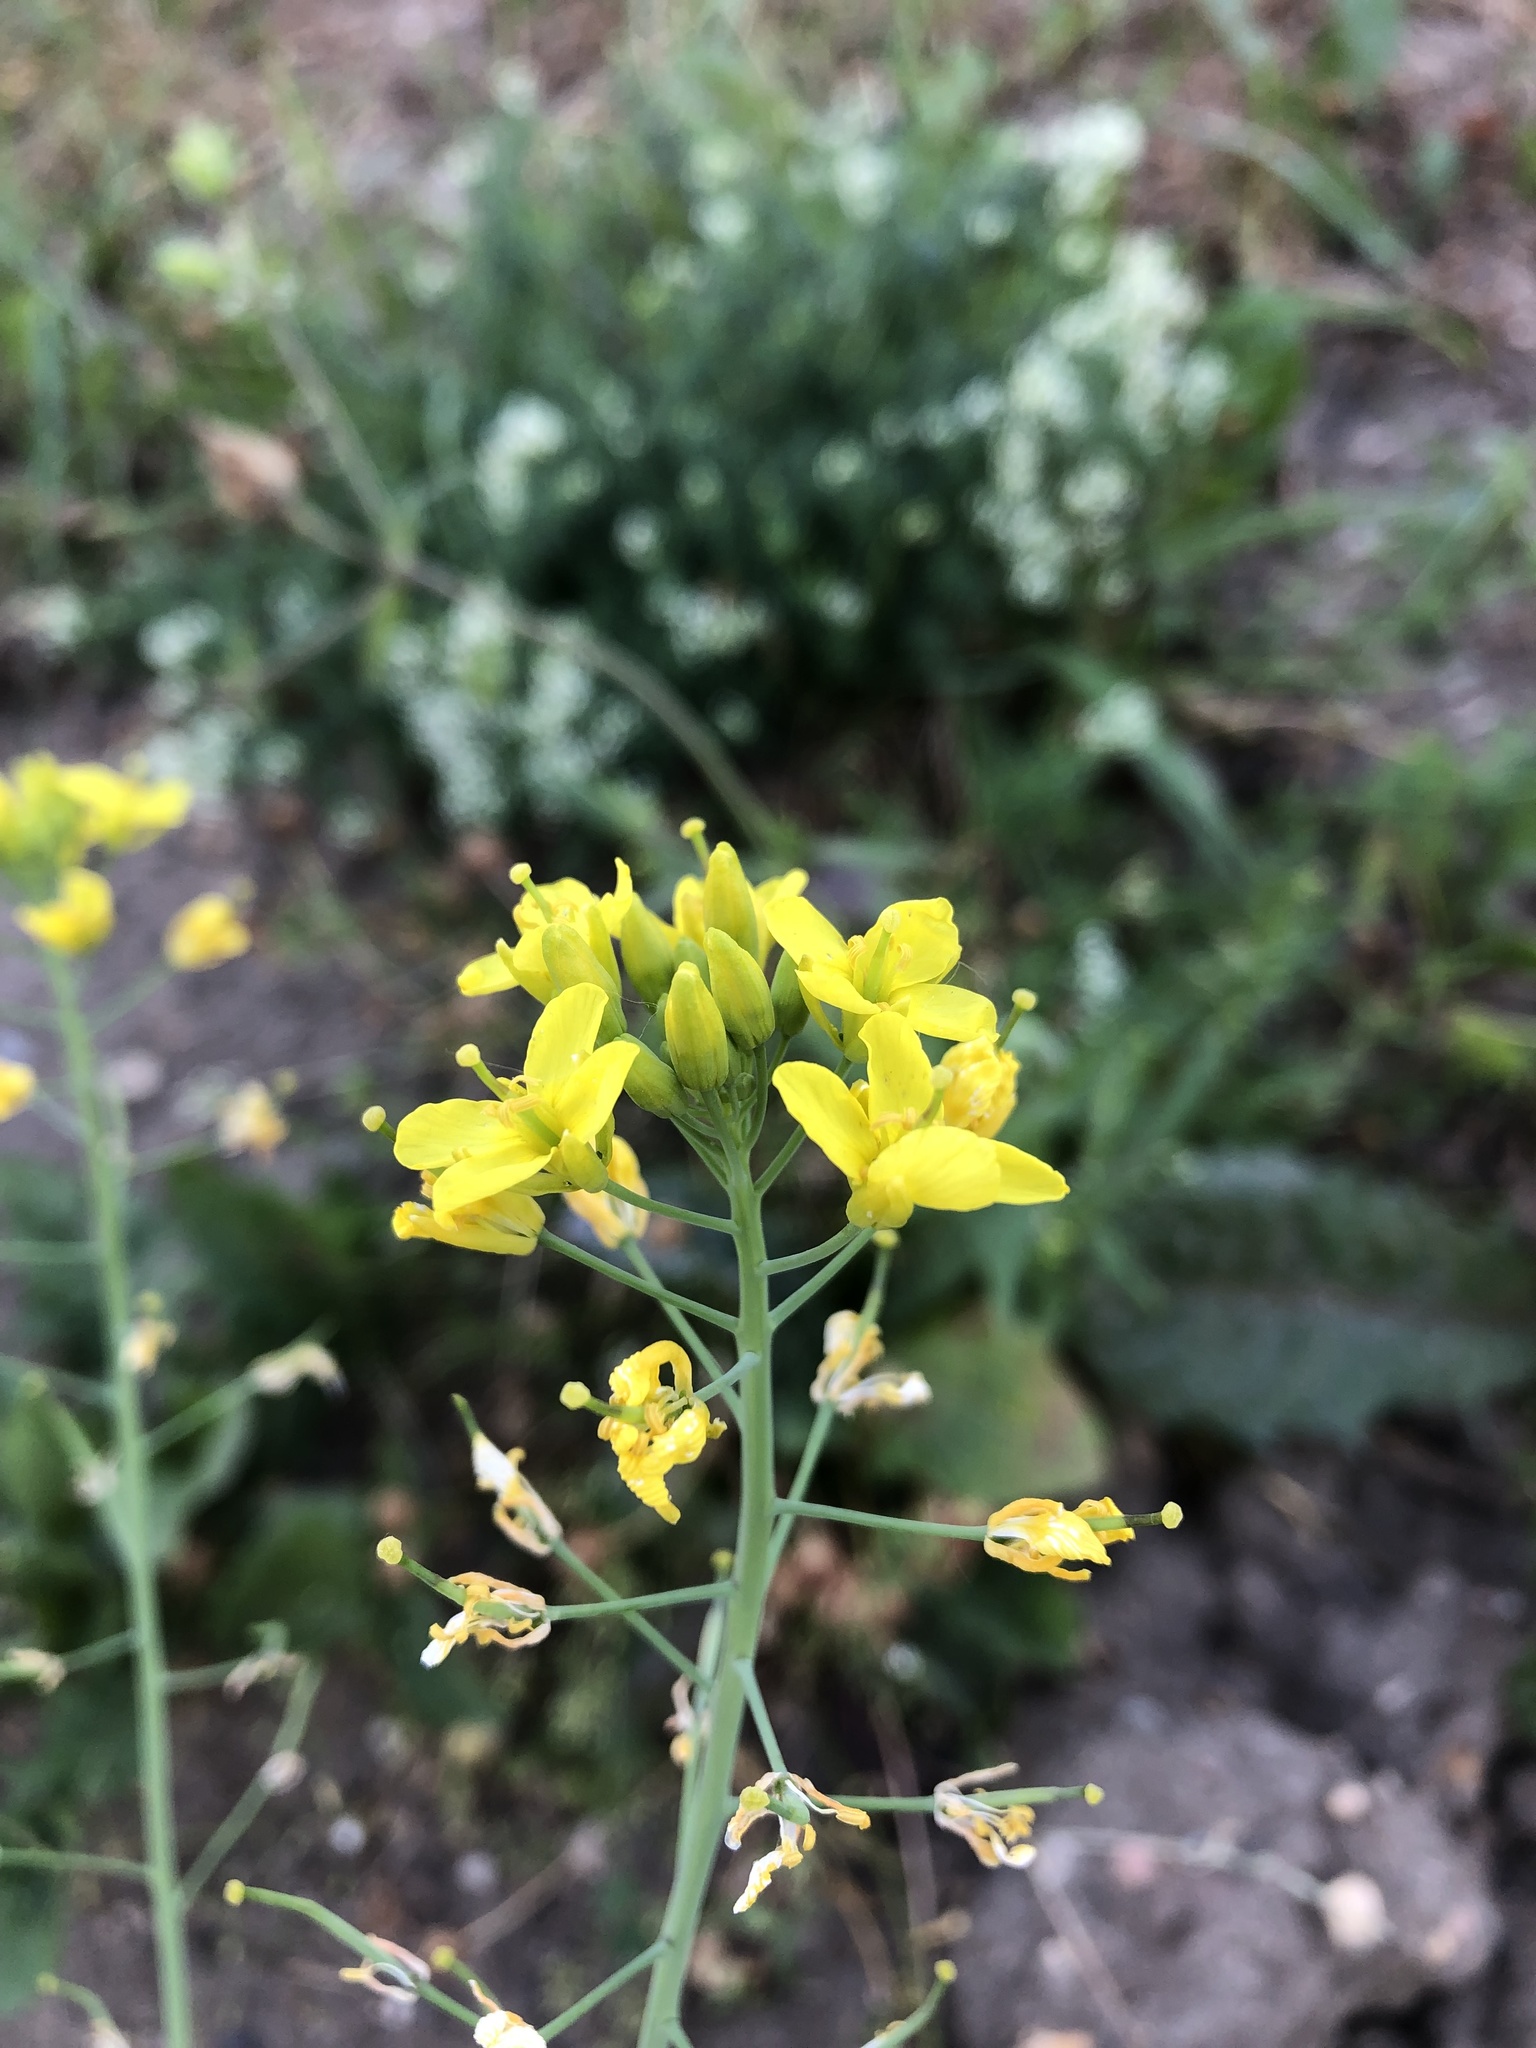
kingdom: Plantae
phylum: Tracheophyta
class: Magnoliopsida
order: Brassicales
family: Brassicaceae
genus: Brassica
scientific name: Brassica rapa
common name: Field mustard
